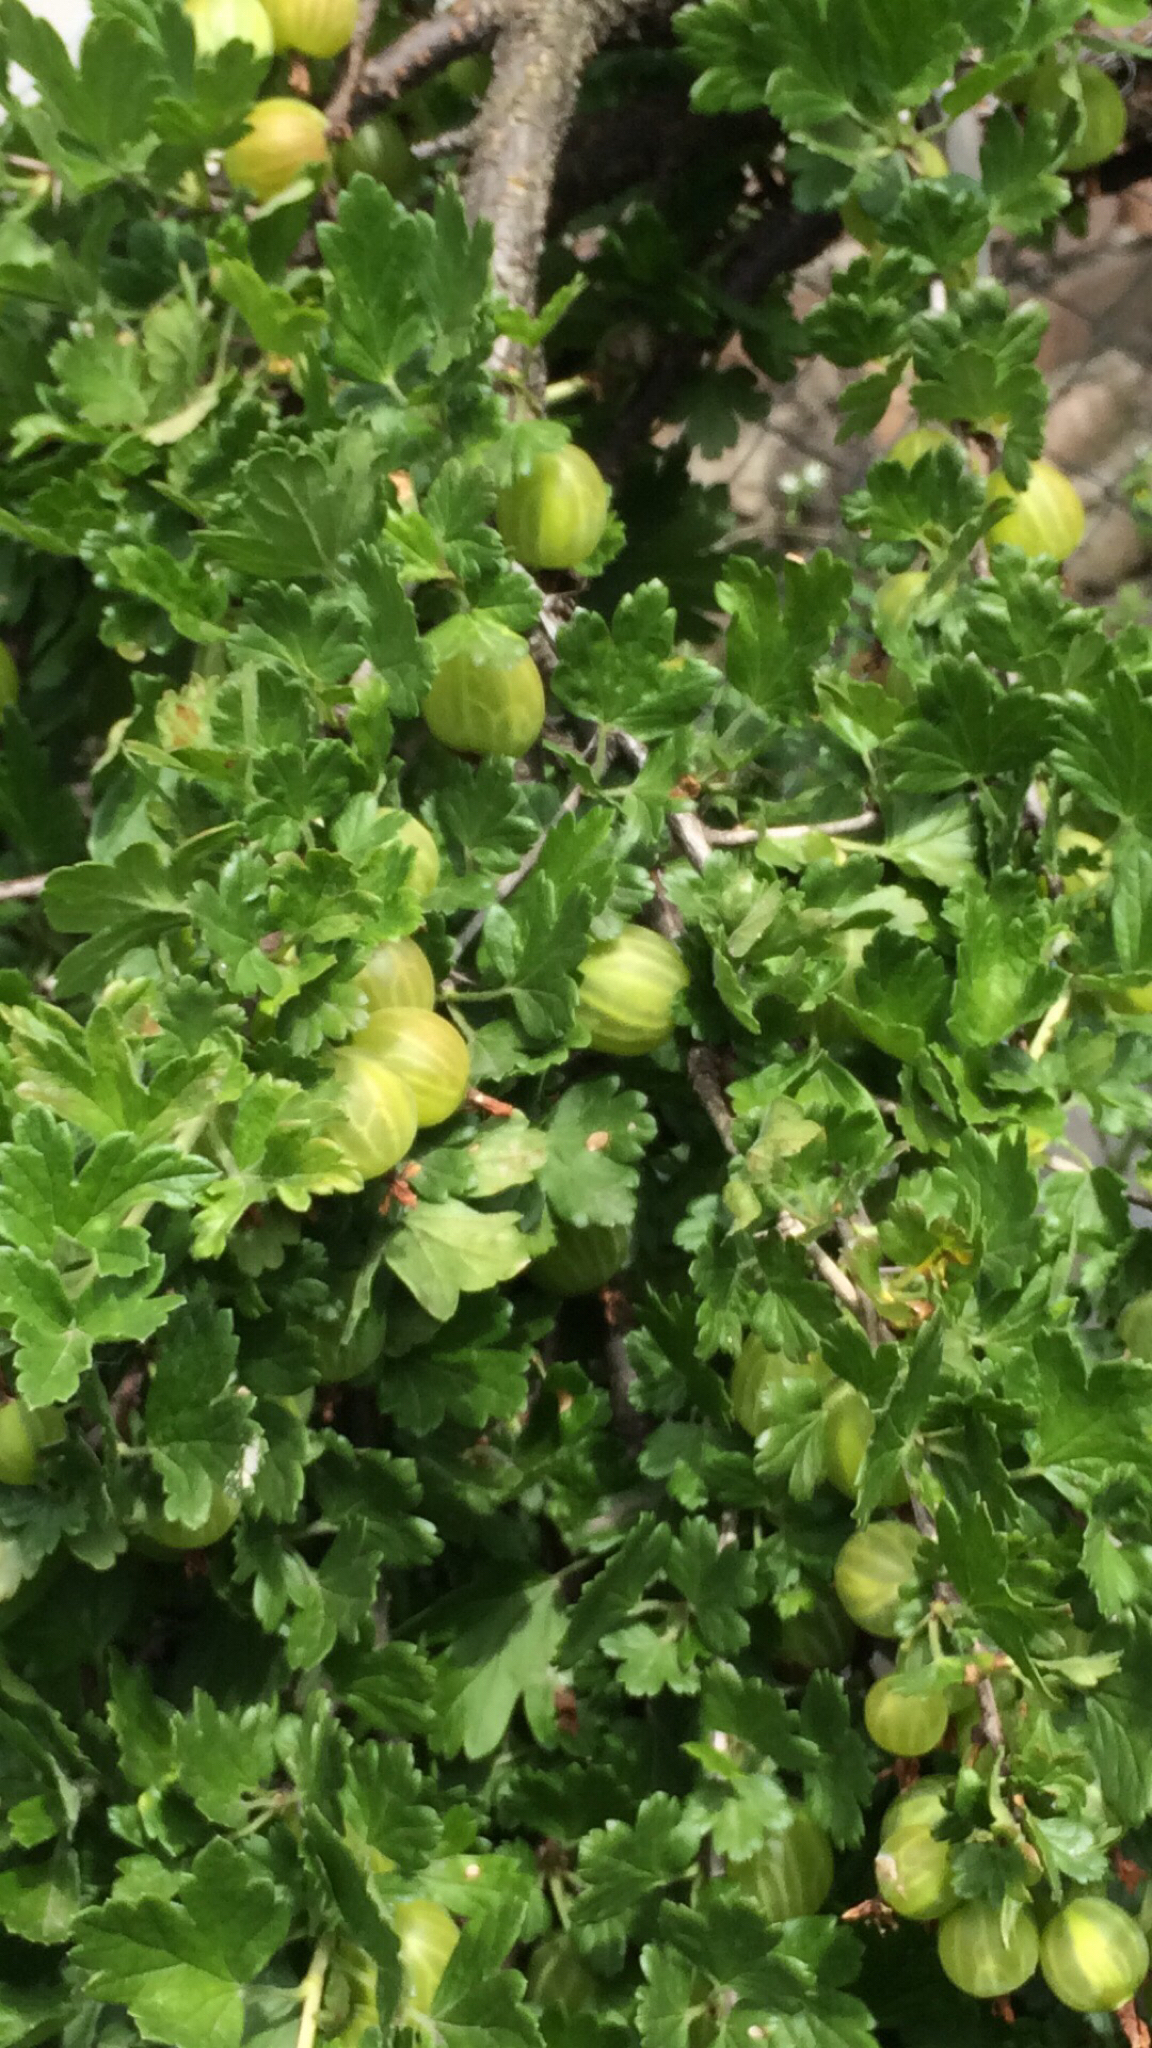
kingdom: Plantae
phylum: Tracheophyta
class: Magnoliopsida
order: Saxifragales
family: Grossulariaceae
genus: Ribes
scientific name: Ribes uva-crispa
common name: Gooseberry
